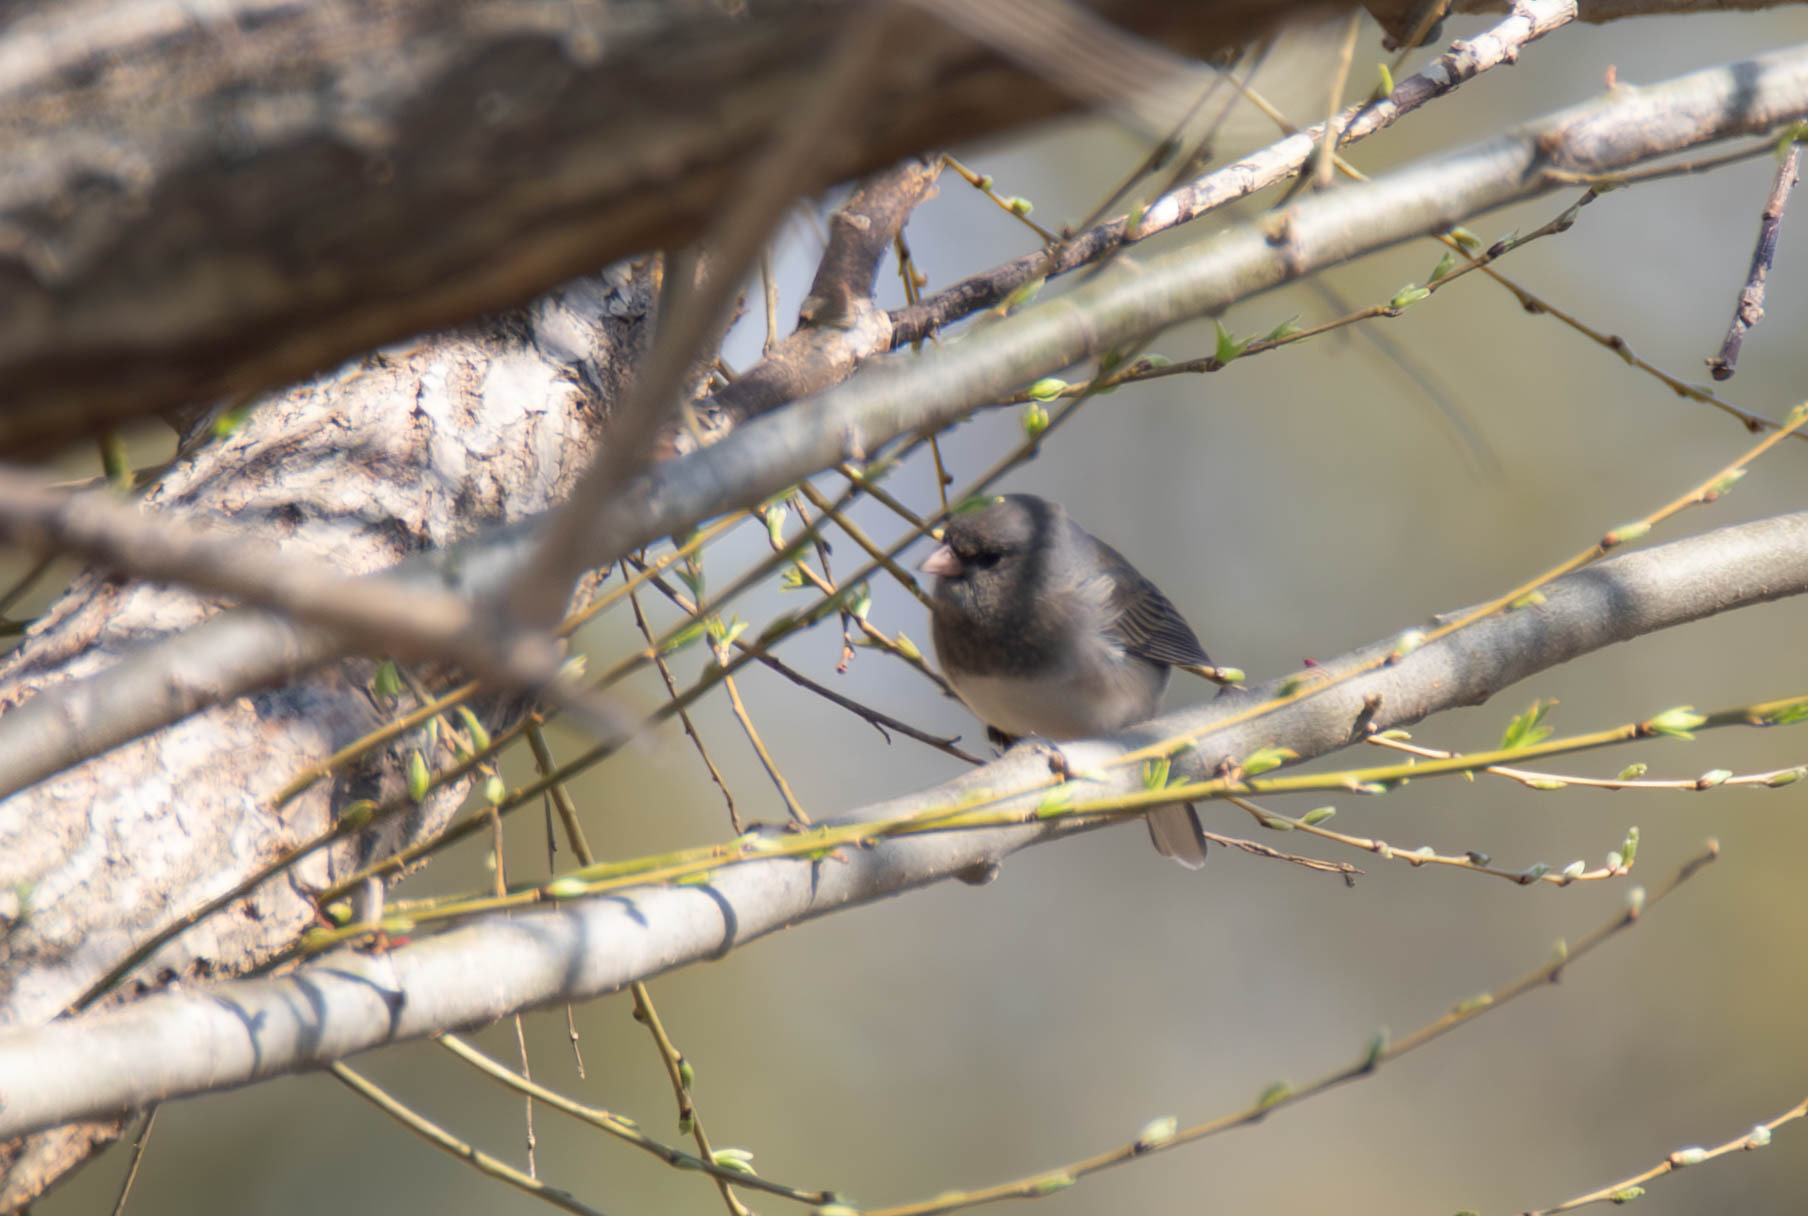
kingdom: Animalia
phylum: Chordata
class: Aves
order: Passeriformes
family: Passerellidae
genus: Junco
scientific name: Junco hyemalis
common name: Dark-eyed junco
